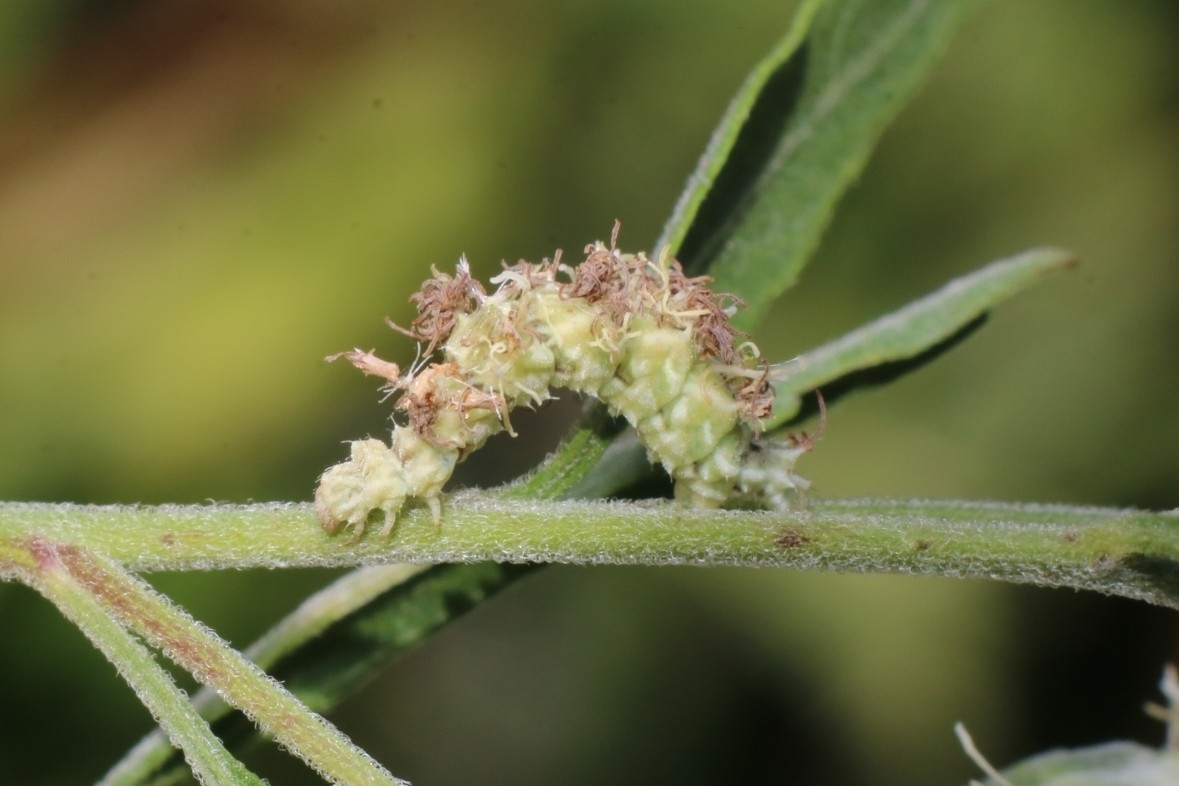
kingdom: Animalia
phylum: Arthropoda
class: Insecta
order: Lepidoptera
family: Geometridae
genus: Synchlora
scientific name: Synchlora aerata
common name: Wavy-lined emerald
